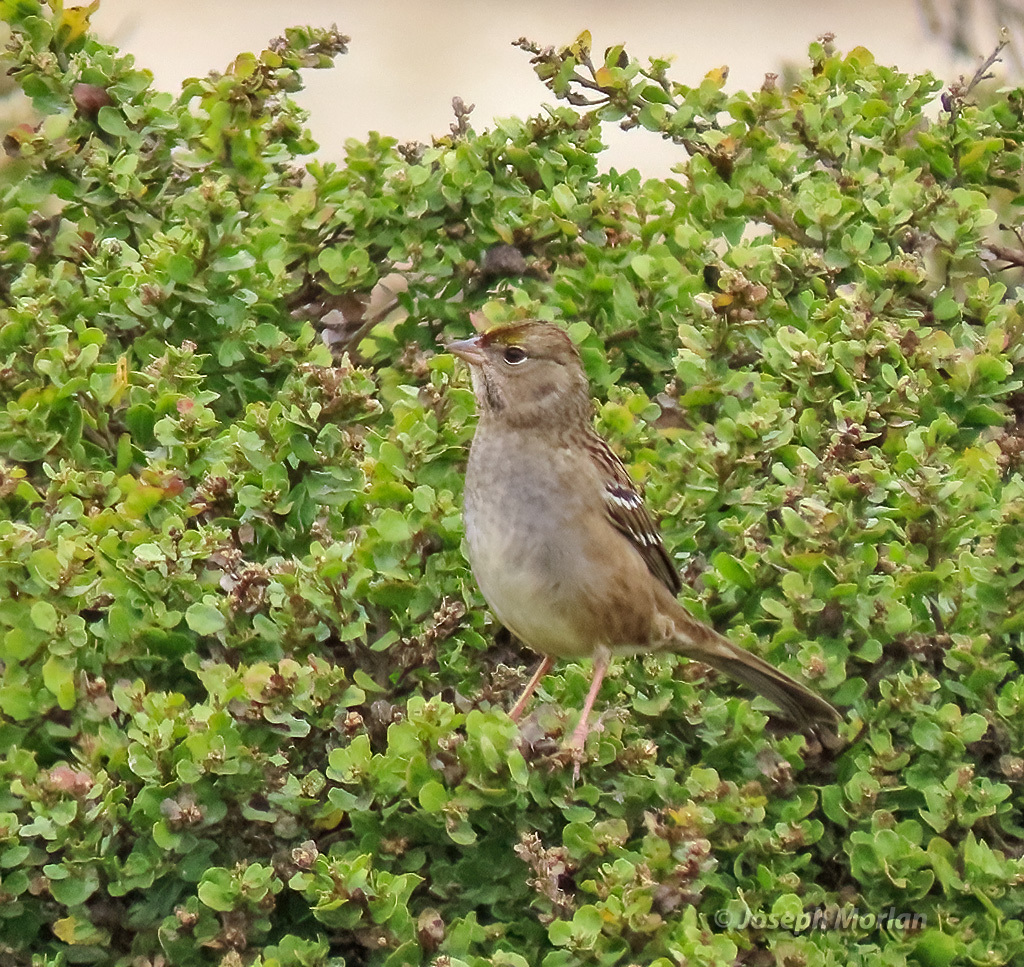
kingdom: Animalia
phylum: Chordata
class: Aves
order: Passeriformes
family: Passerellidae
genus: Zonotrichia
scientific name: Zonotrichia atricapilla
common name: Golden-crowned sparrow
